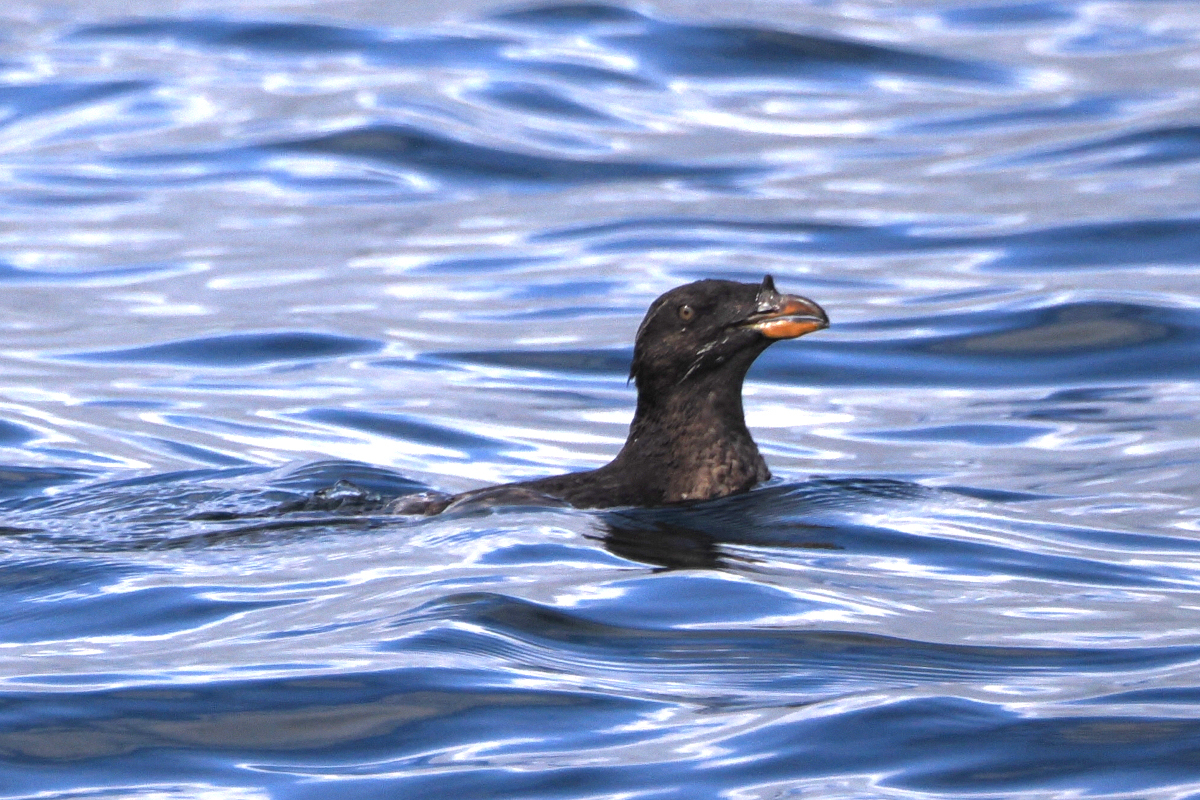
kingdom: Animalia
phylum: Chordata
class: Aves
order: Charadriiformes
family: Alcidae
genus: Cerorhinca
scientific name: Cerorhinca monocerata
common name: Rhinoceros auklet
